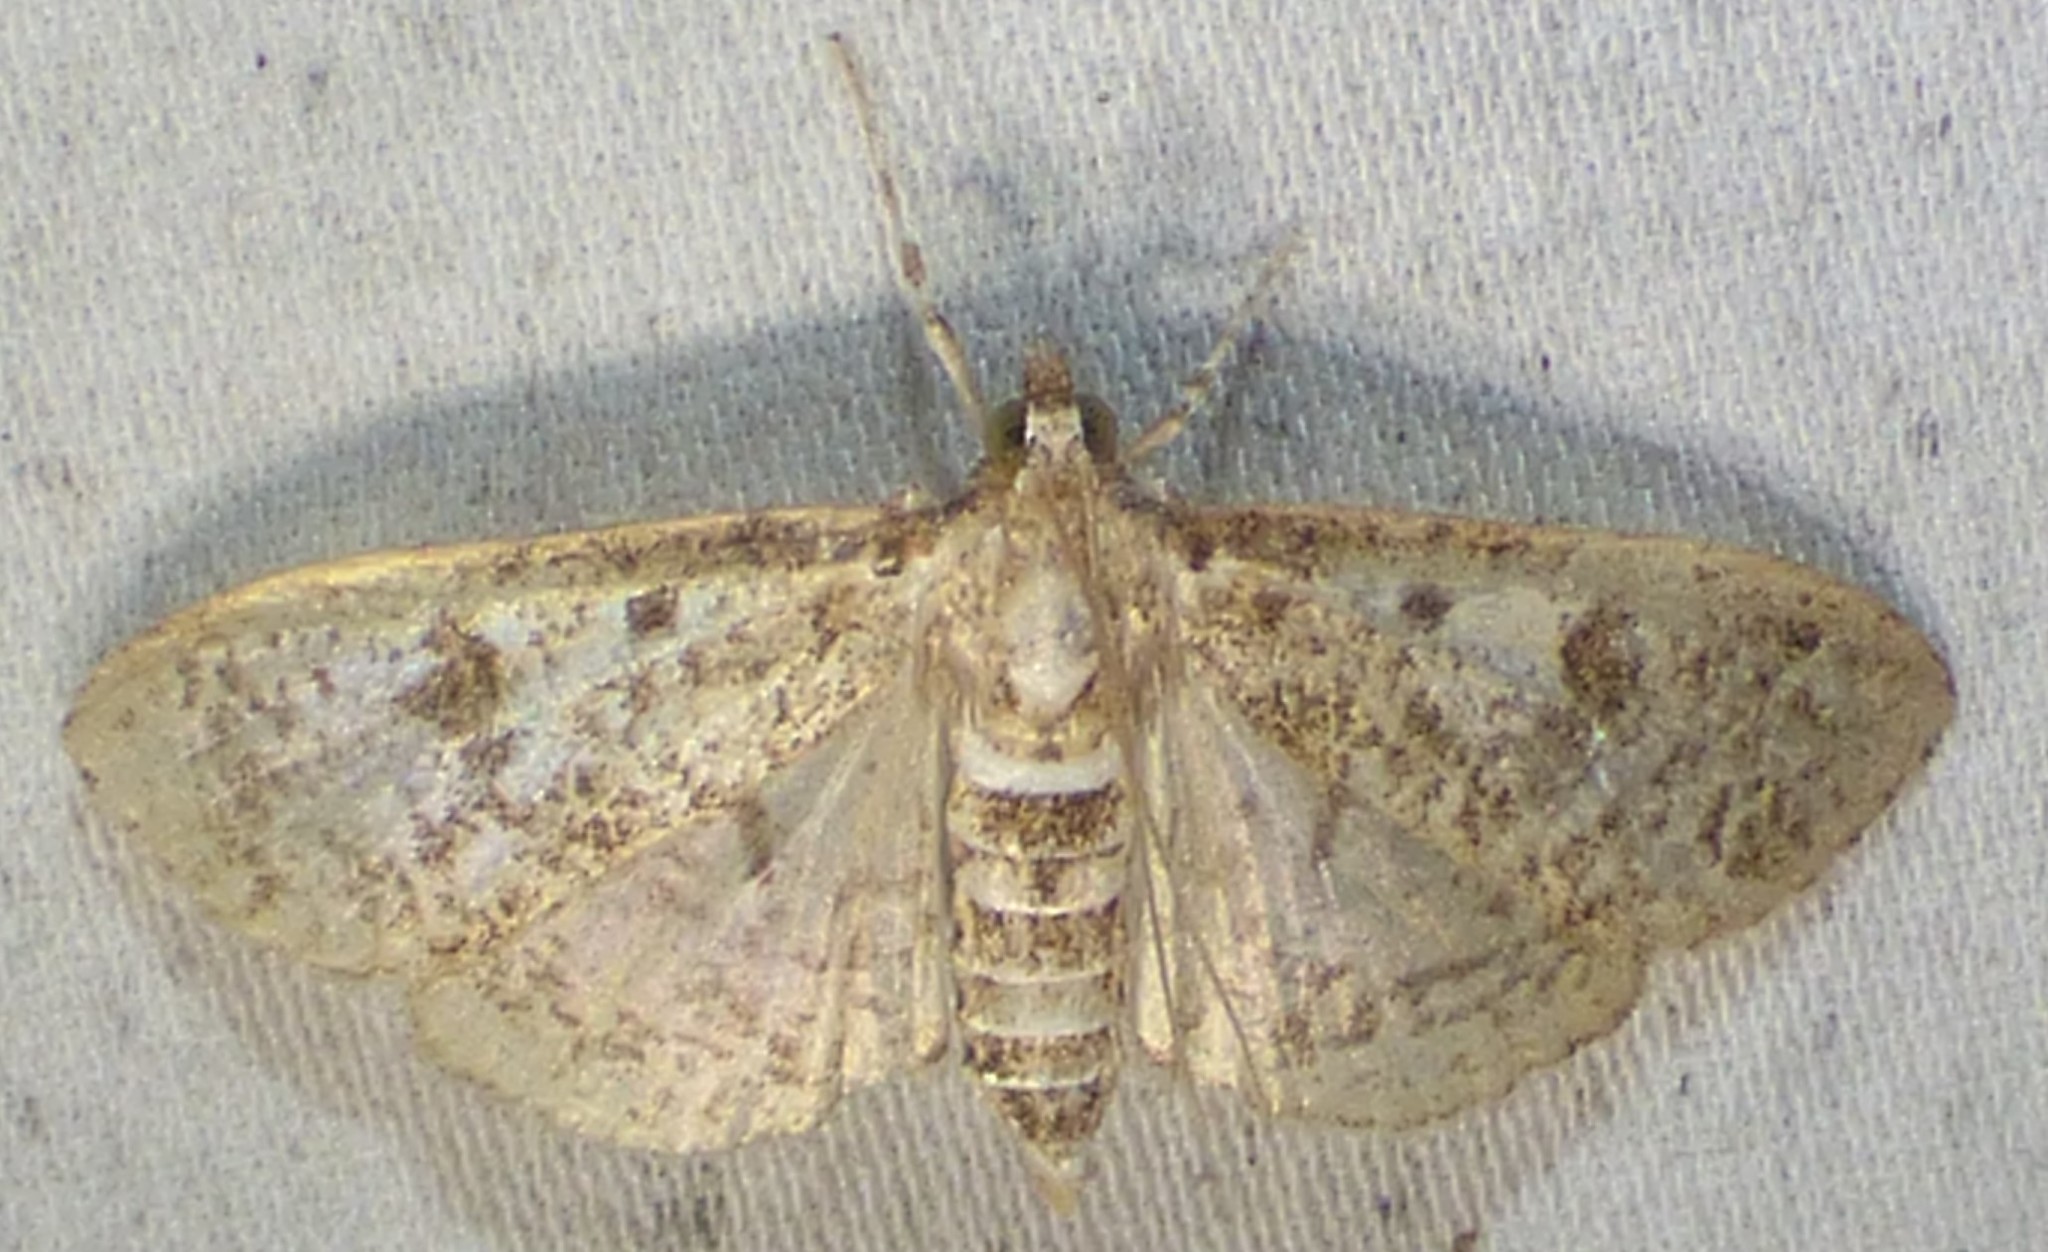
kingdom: Animalia
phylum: Arthropoda
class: Insecta
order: Lepidoptera
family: Crambidae
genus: Palpita
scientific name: Palpita magniferalis
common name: Splendid palpita moth
